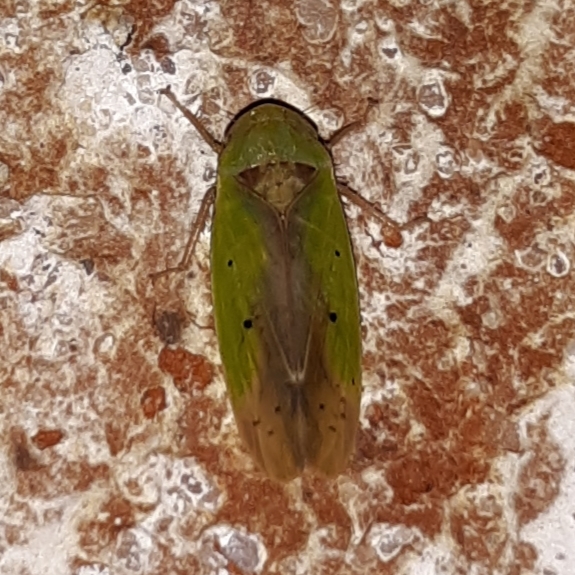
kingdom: Animalia
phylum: Arthropoda
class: Insecta
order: Hemiptera
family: Cicadellidae
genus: Ponana
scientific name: Ponana pectoralis
